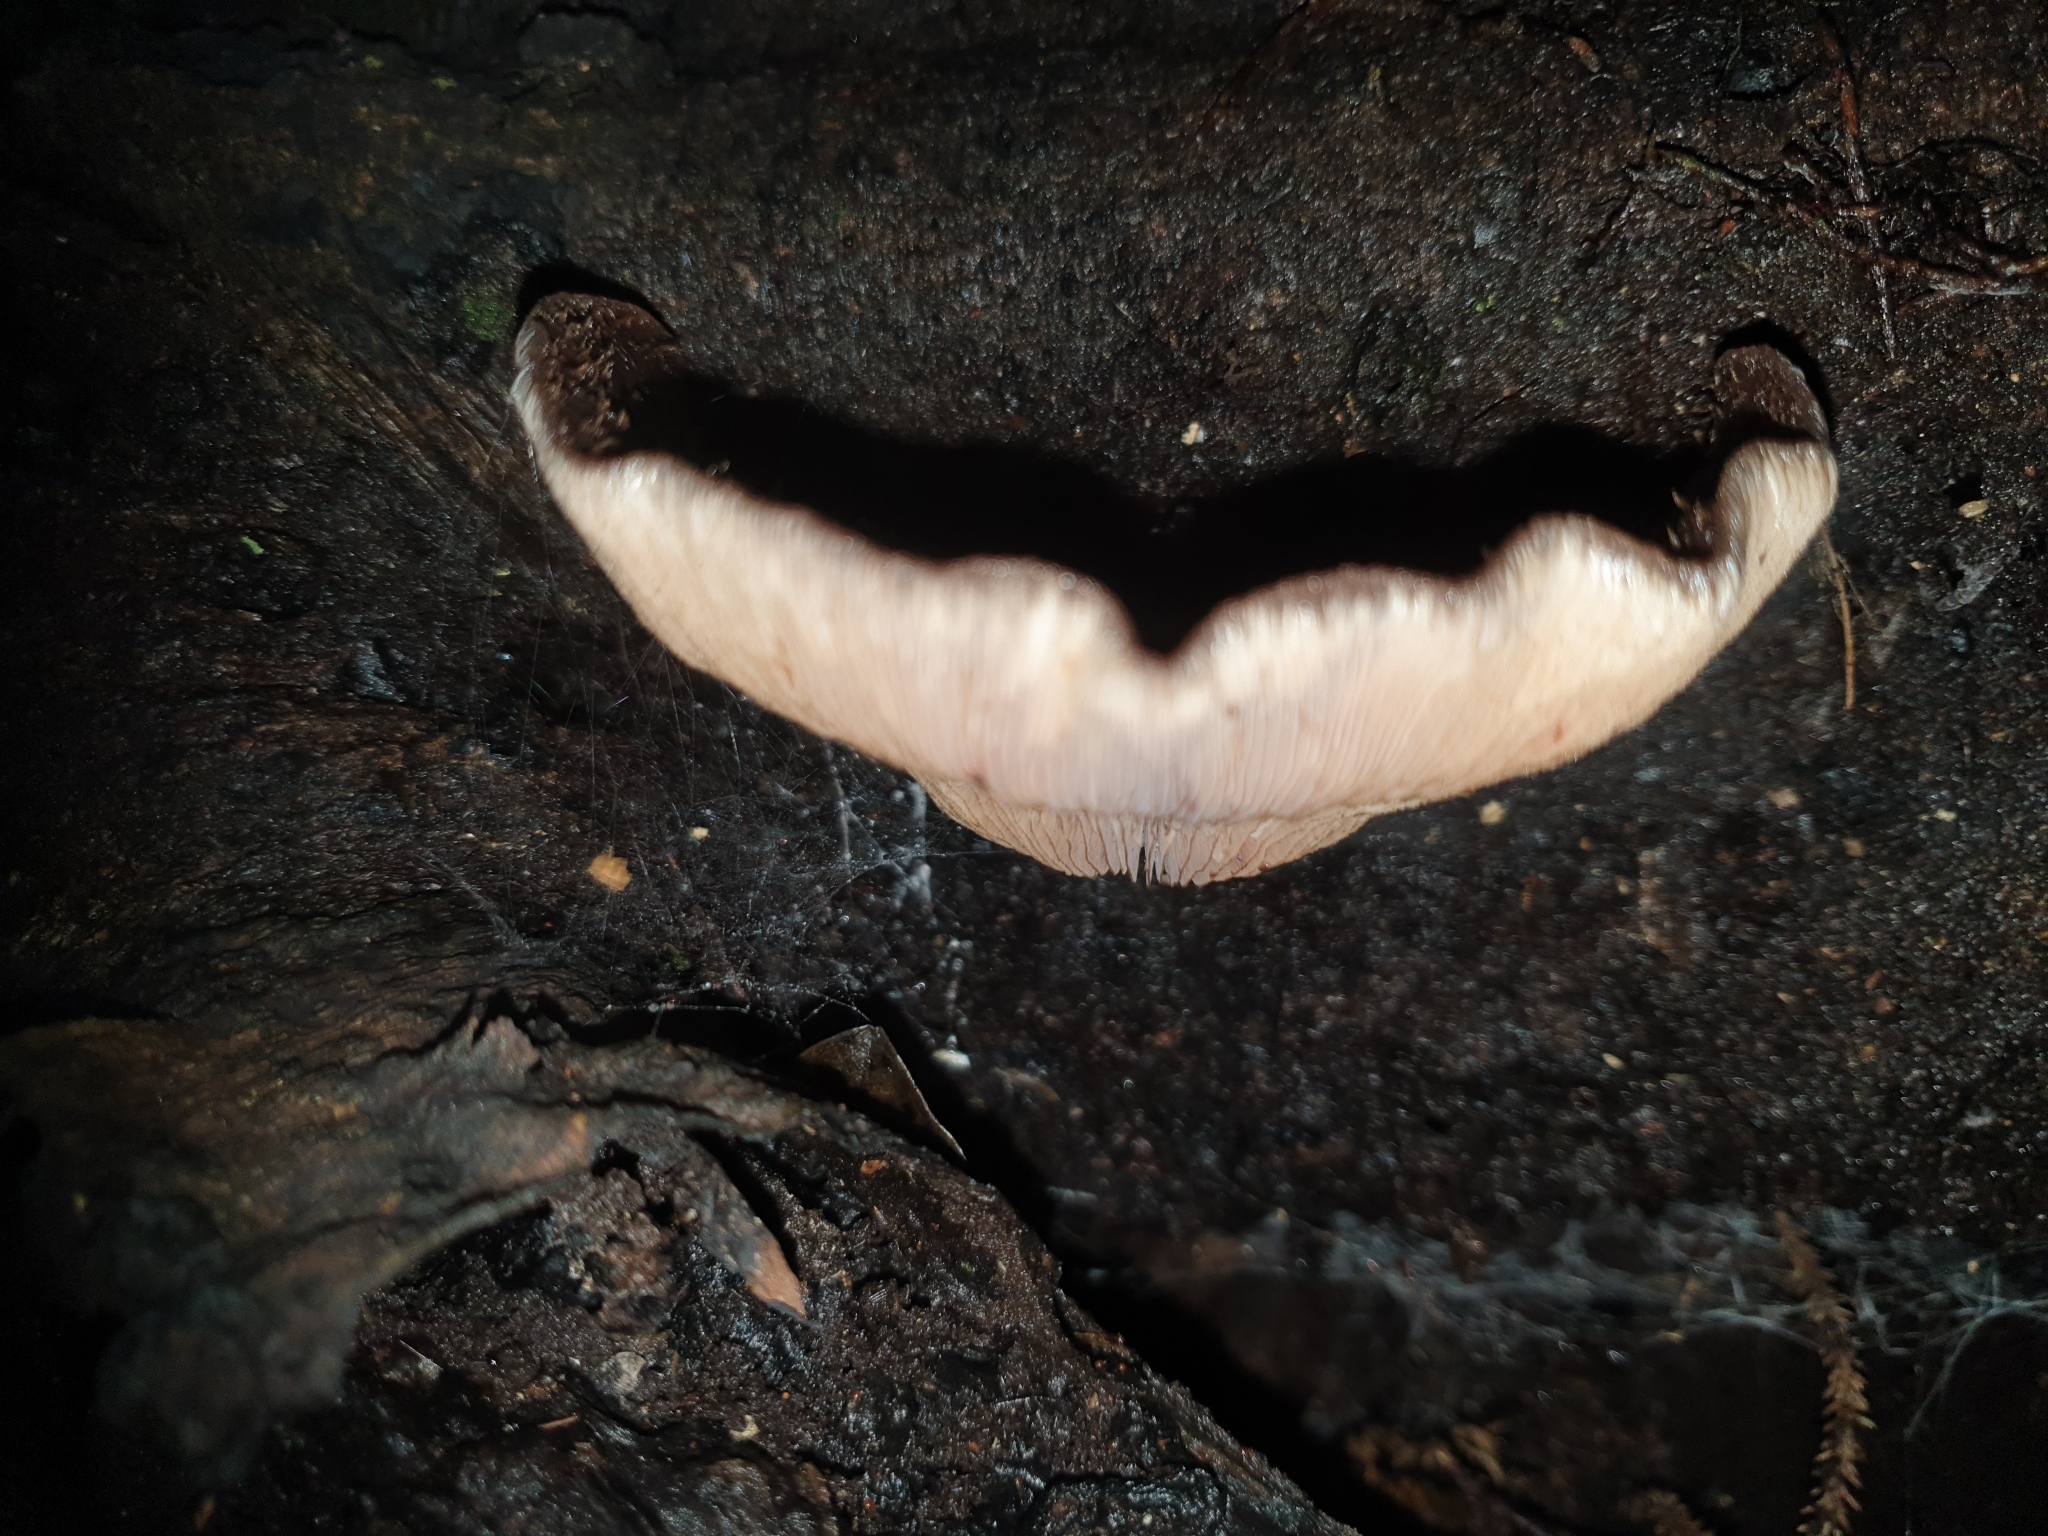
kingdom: Fungi
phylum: Basidiomycota
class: Agaricomycetes
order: Agaricales
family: Omphalotaceae
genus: Lentinula
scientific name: Lentinula novae-zelandiae
